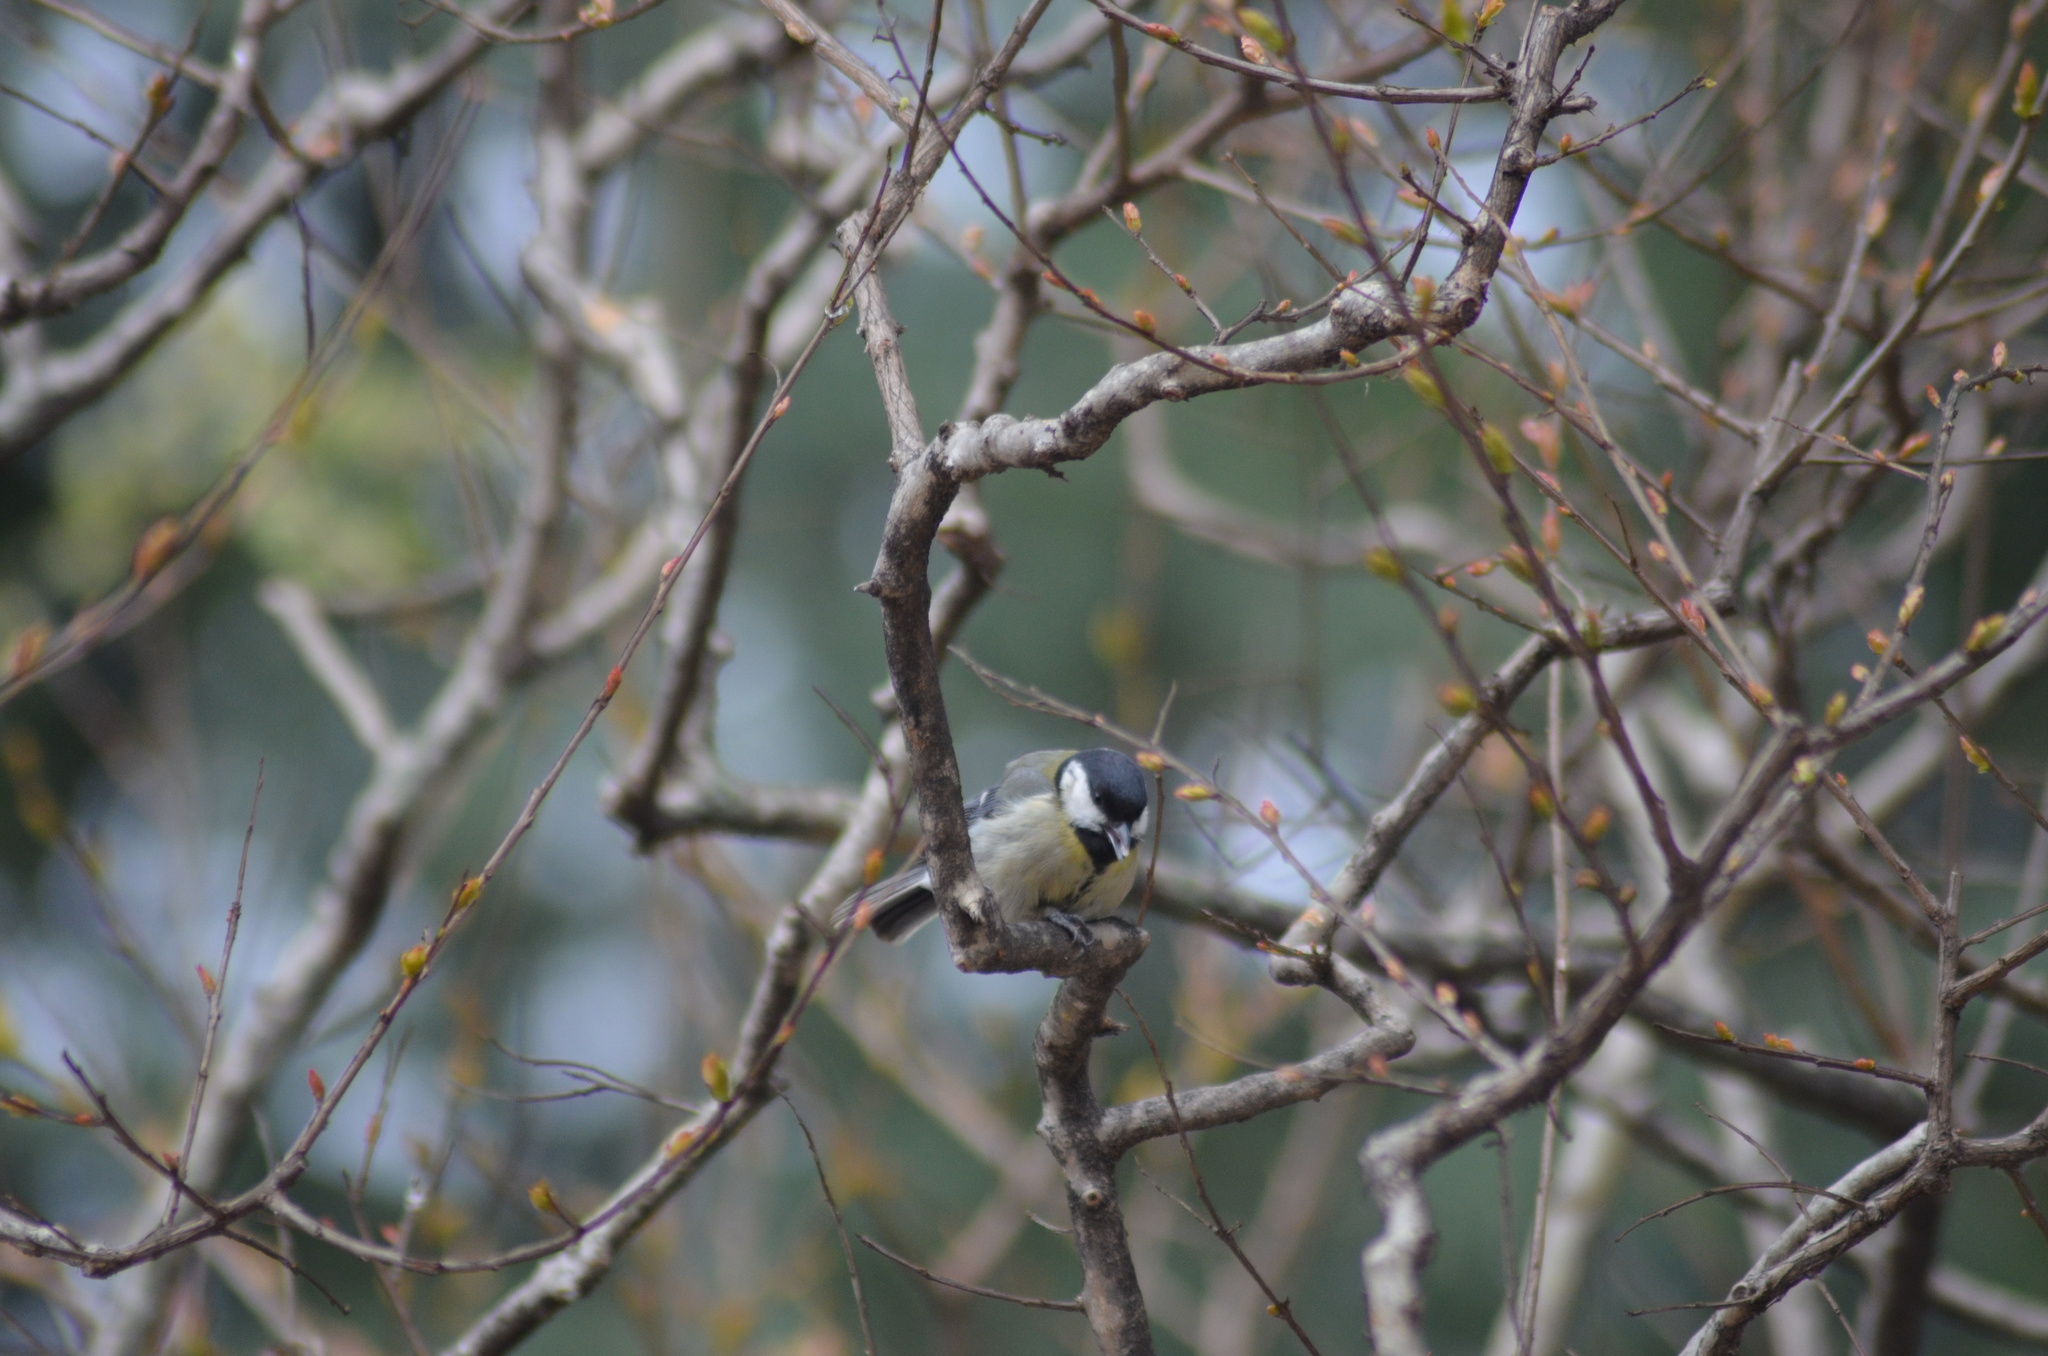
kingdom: Animalia
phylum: Chordata
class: Aves
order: Passeriformes
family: Paridae
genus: Parus
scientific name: Parus major
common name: Great tit
